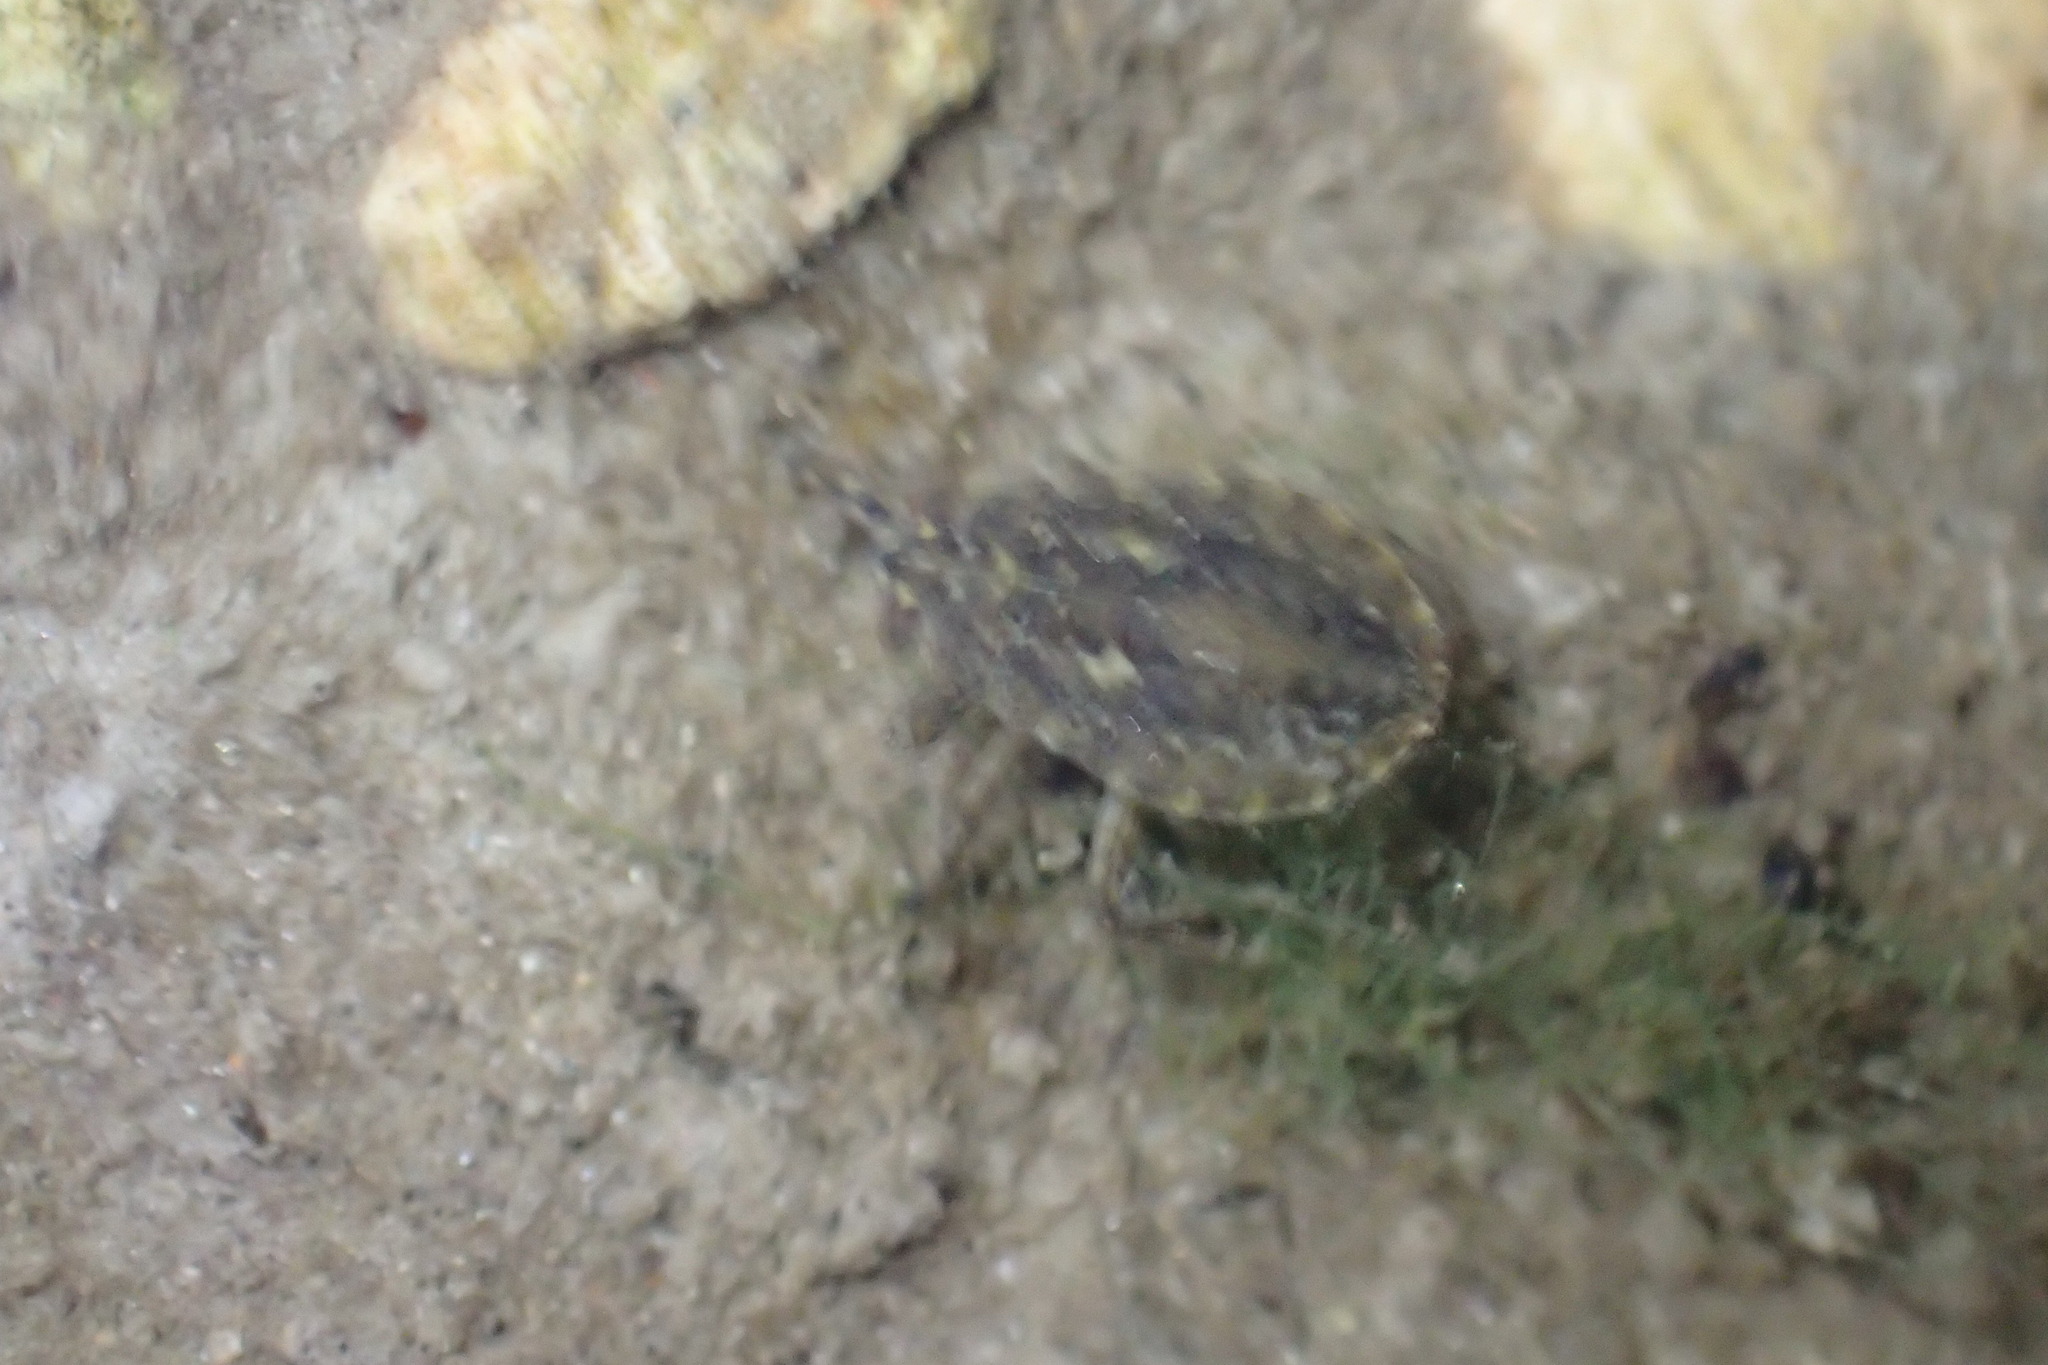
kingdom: Animalia
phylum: Arthropoda
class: Insecta
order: Hemiptera
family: Belostomatidae
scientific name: Belostomatidae
